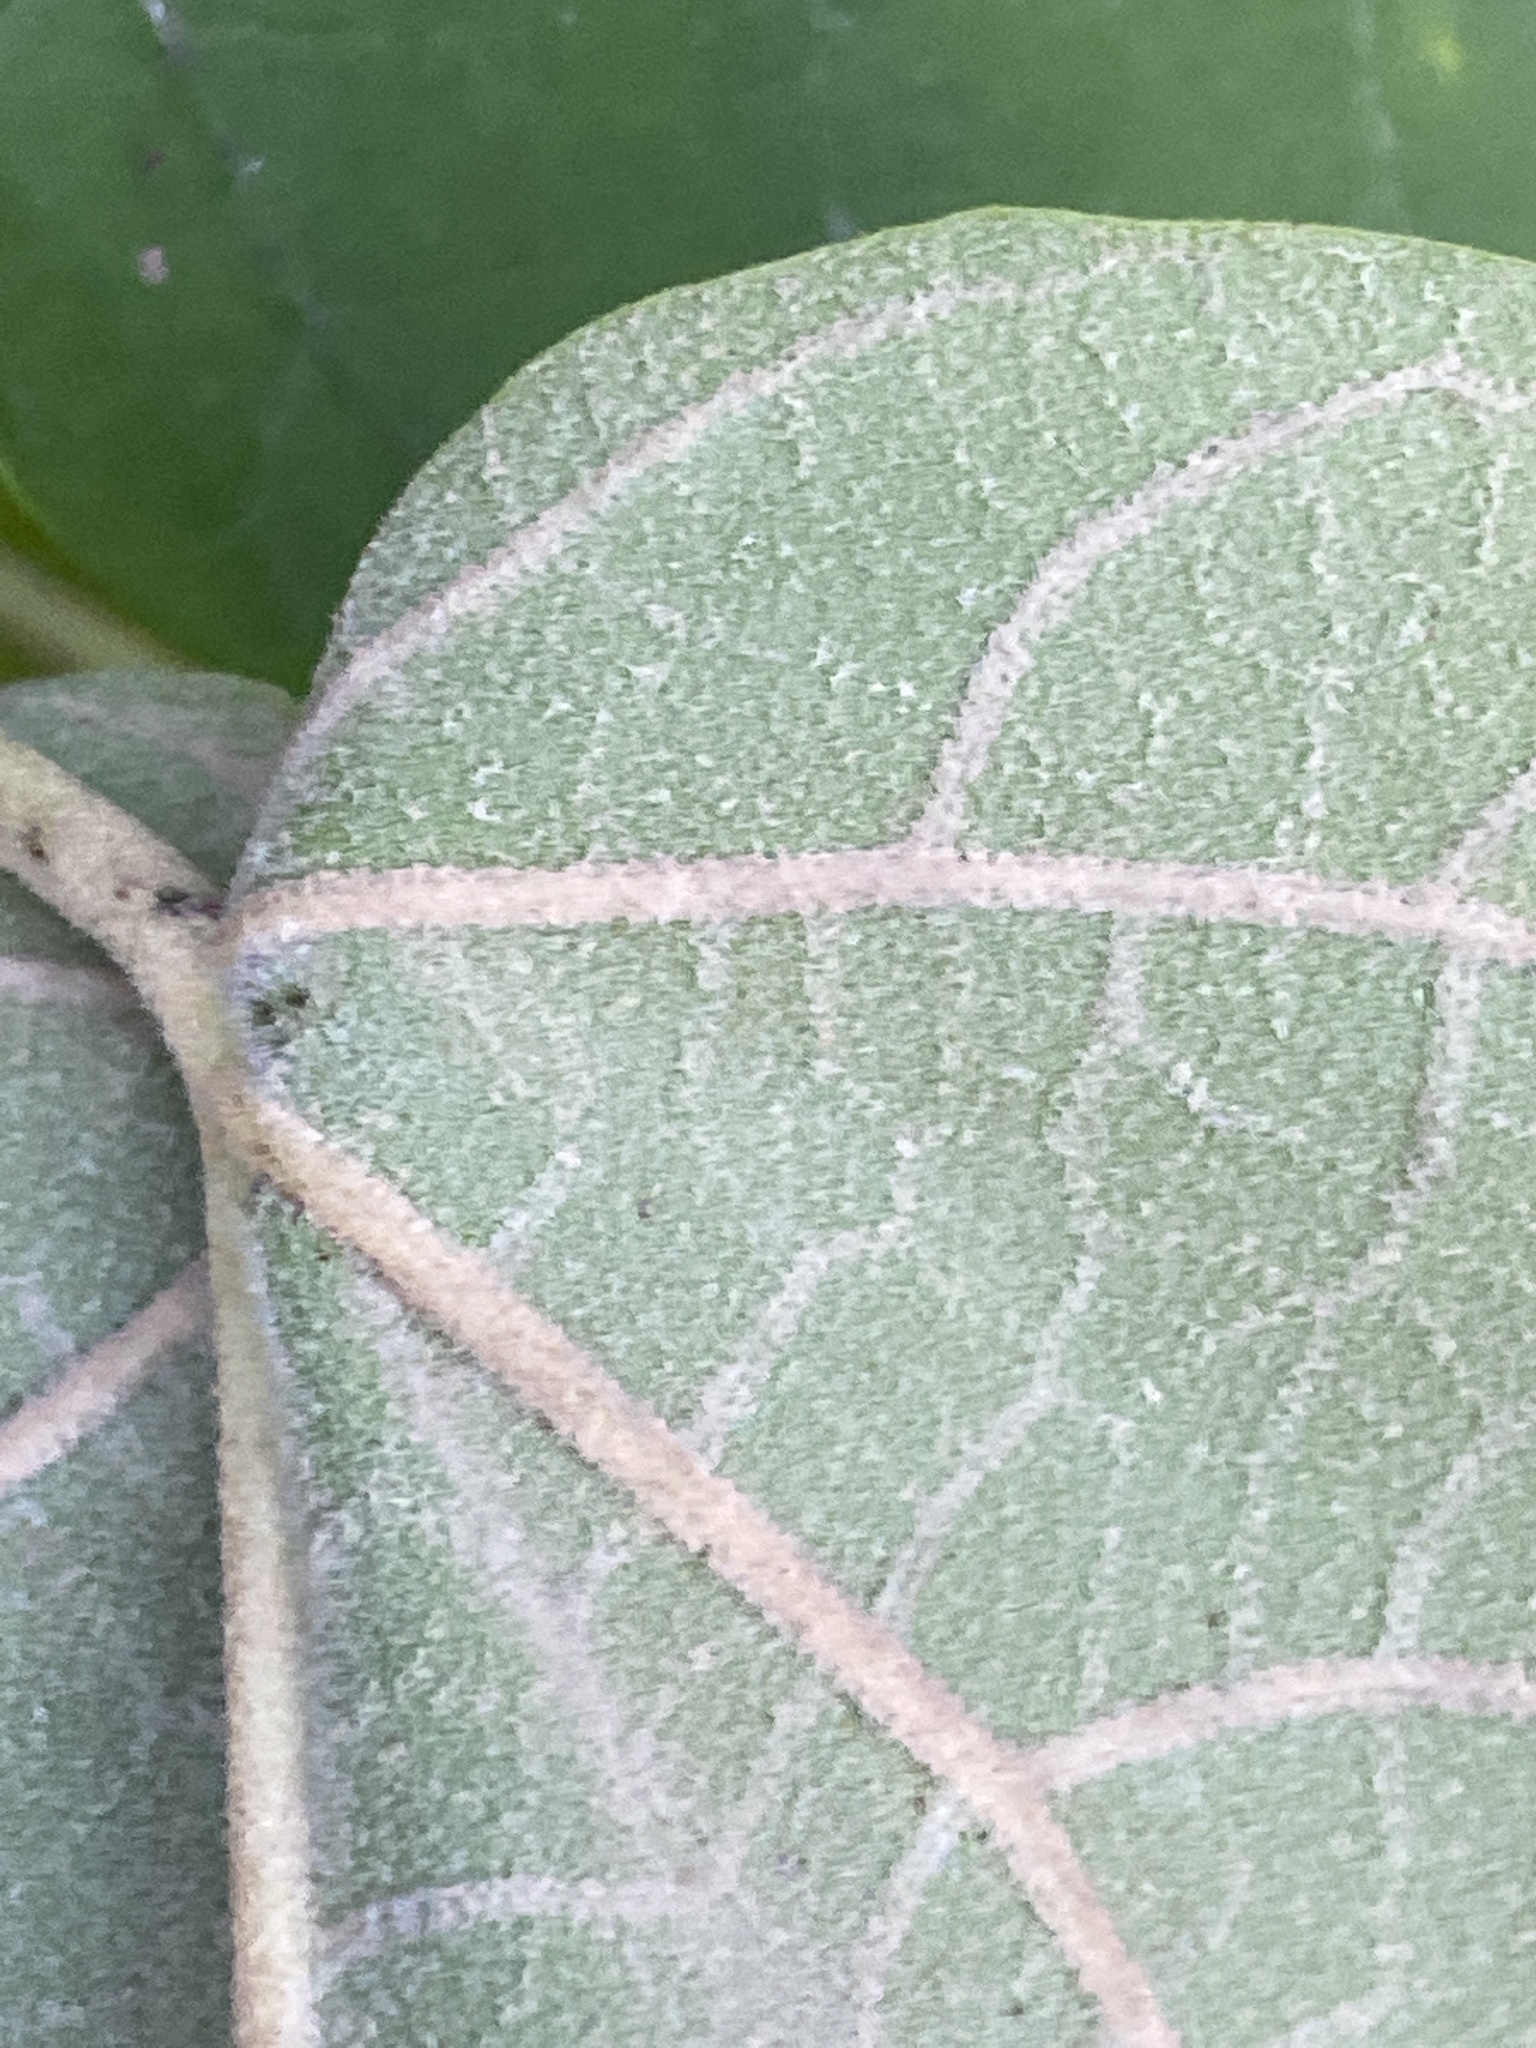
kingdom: Plantae
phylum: Tracheophyta
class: Magnoliopsida
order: Lamiales
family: Paulowniaceae
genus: Paulownia
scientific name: Paulownia tomentosa
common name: Foxglove-tree
